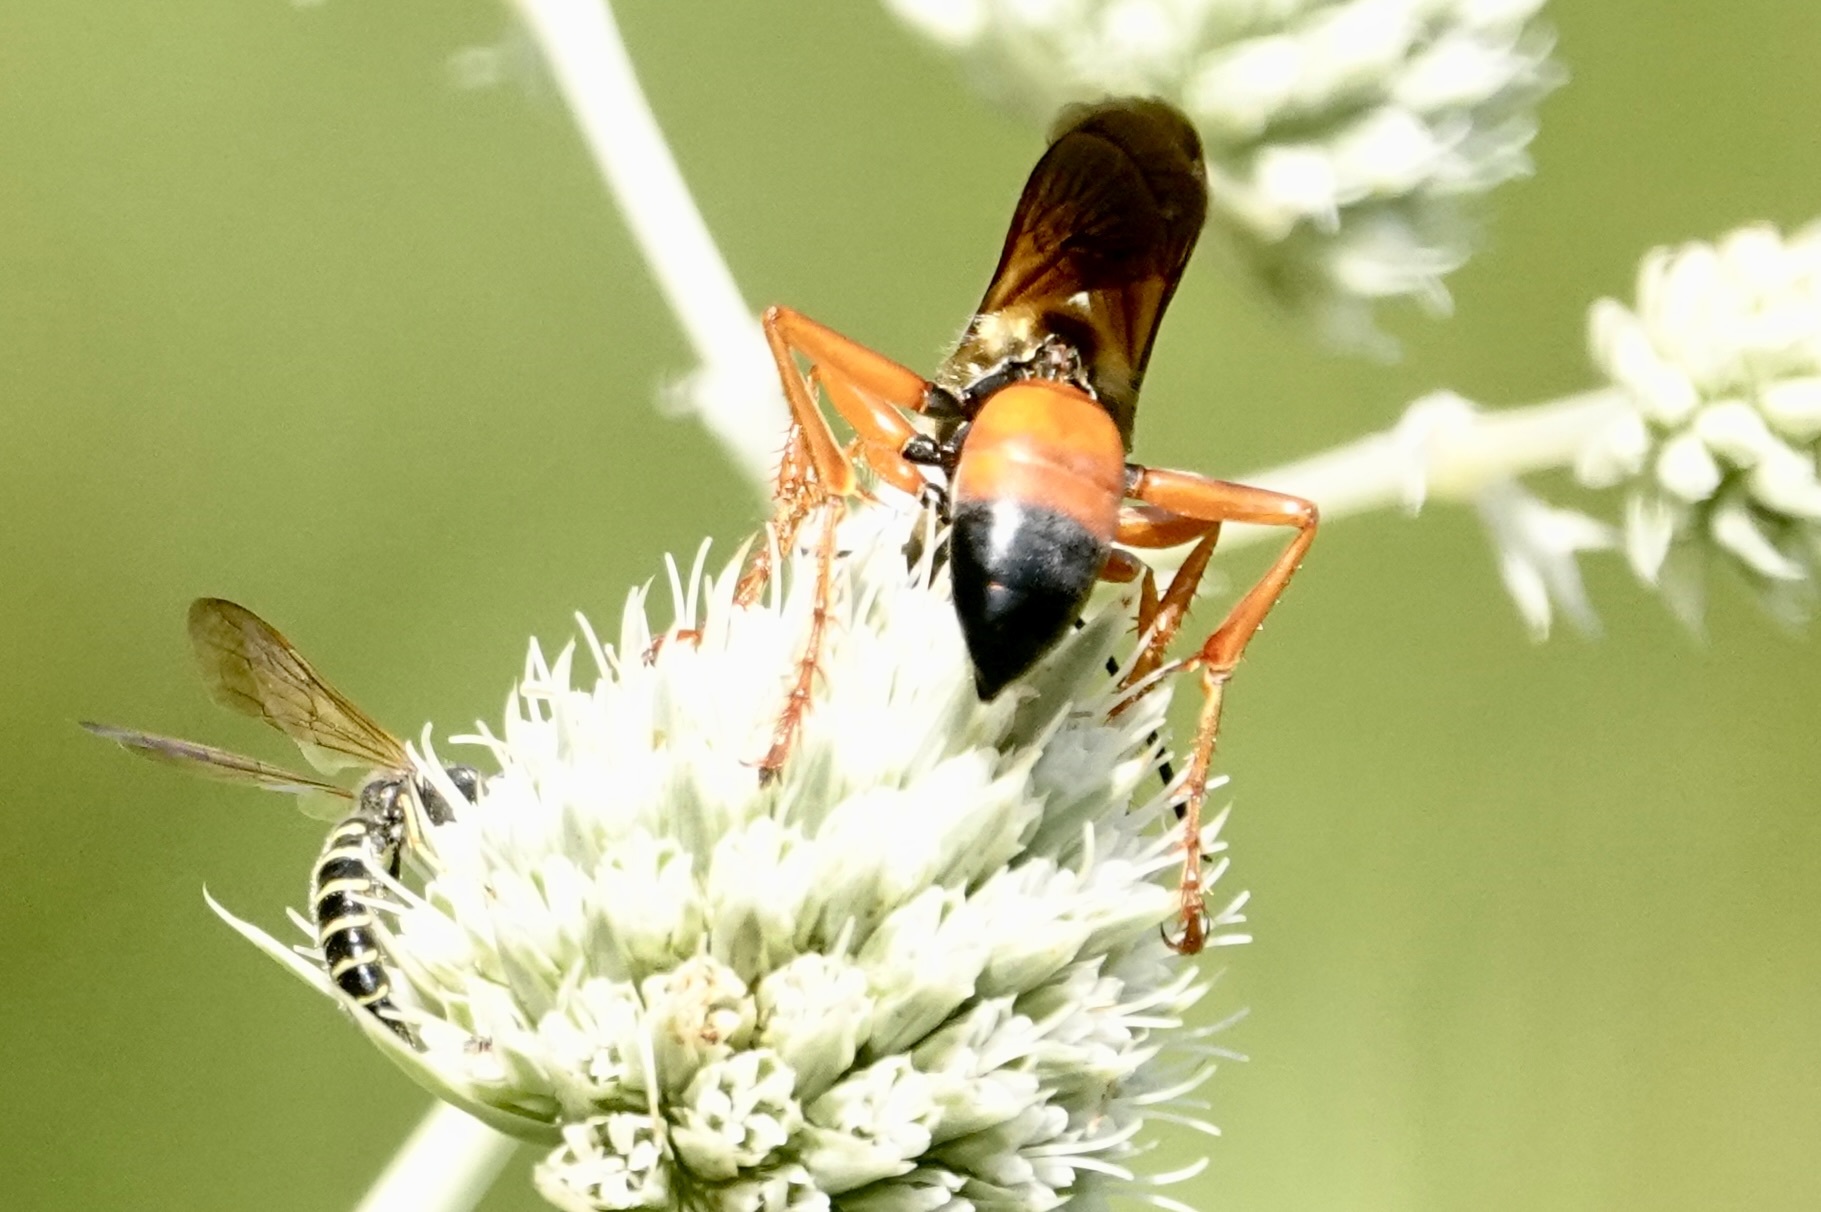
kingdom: Animalia
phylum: Arthropoda
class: Insecta
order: Hymenoptera
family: Sphecidae
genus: Sphex
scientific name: Sphex ichneumoneus
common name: Great golden digger wasp
